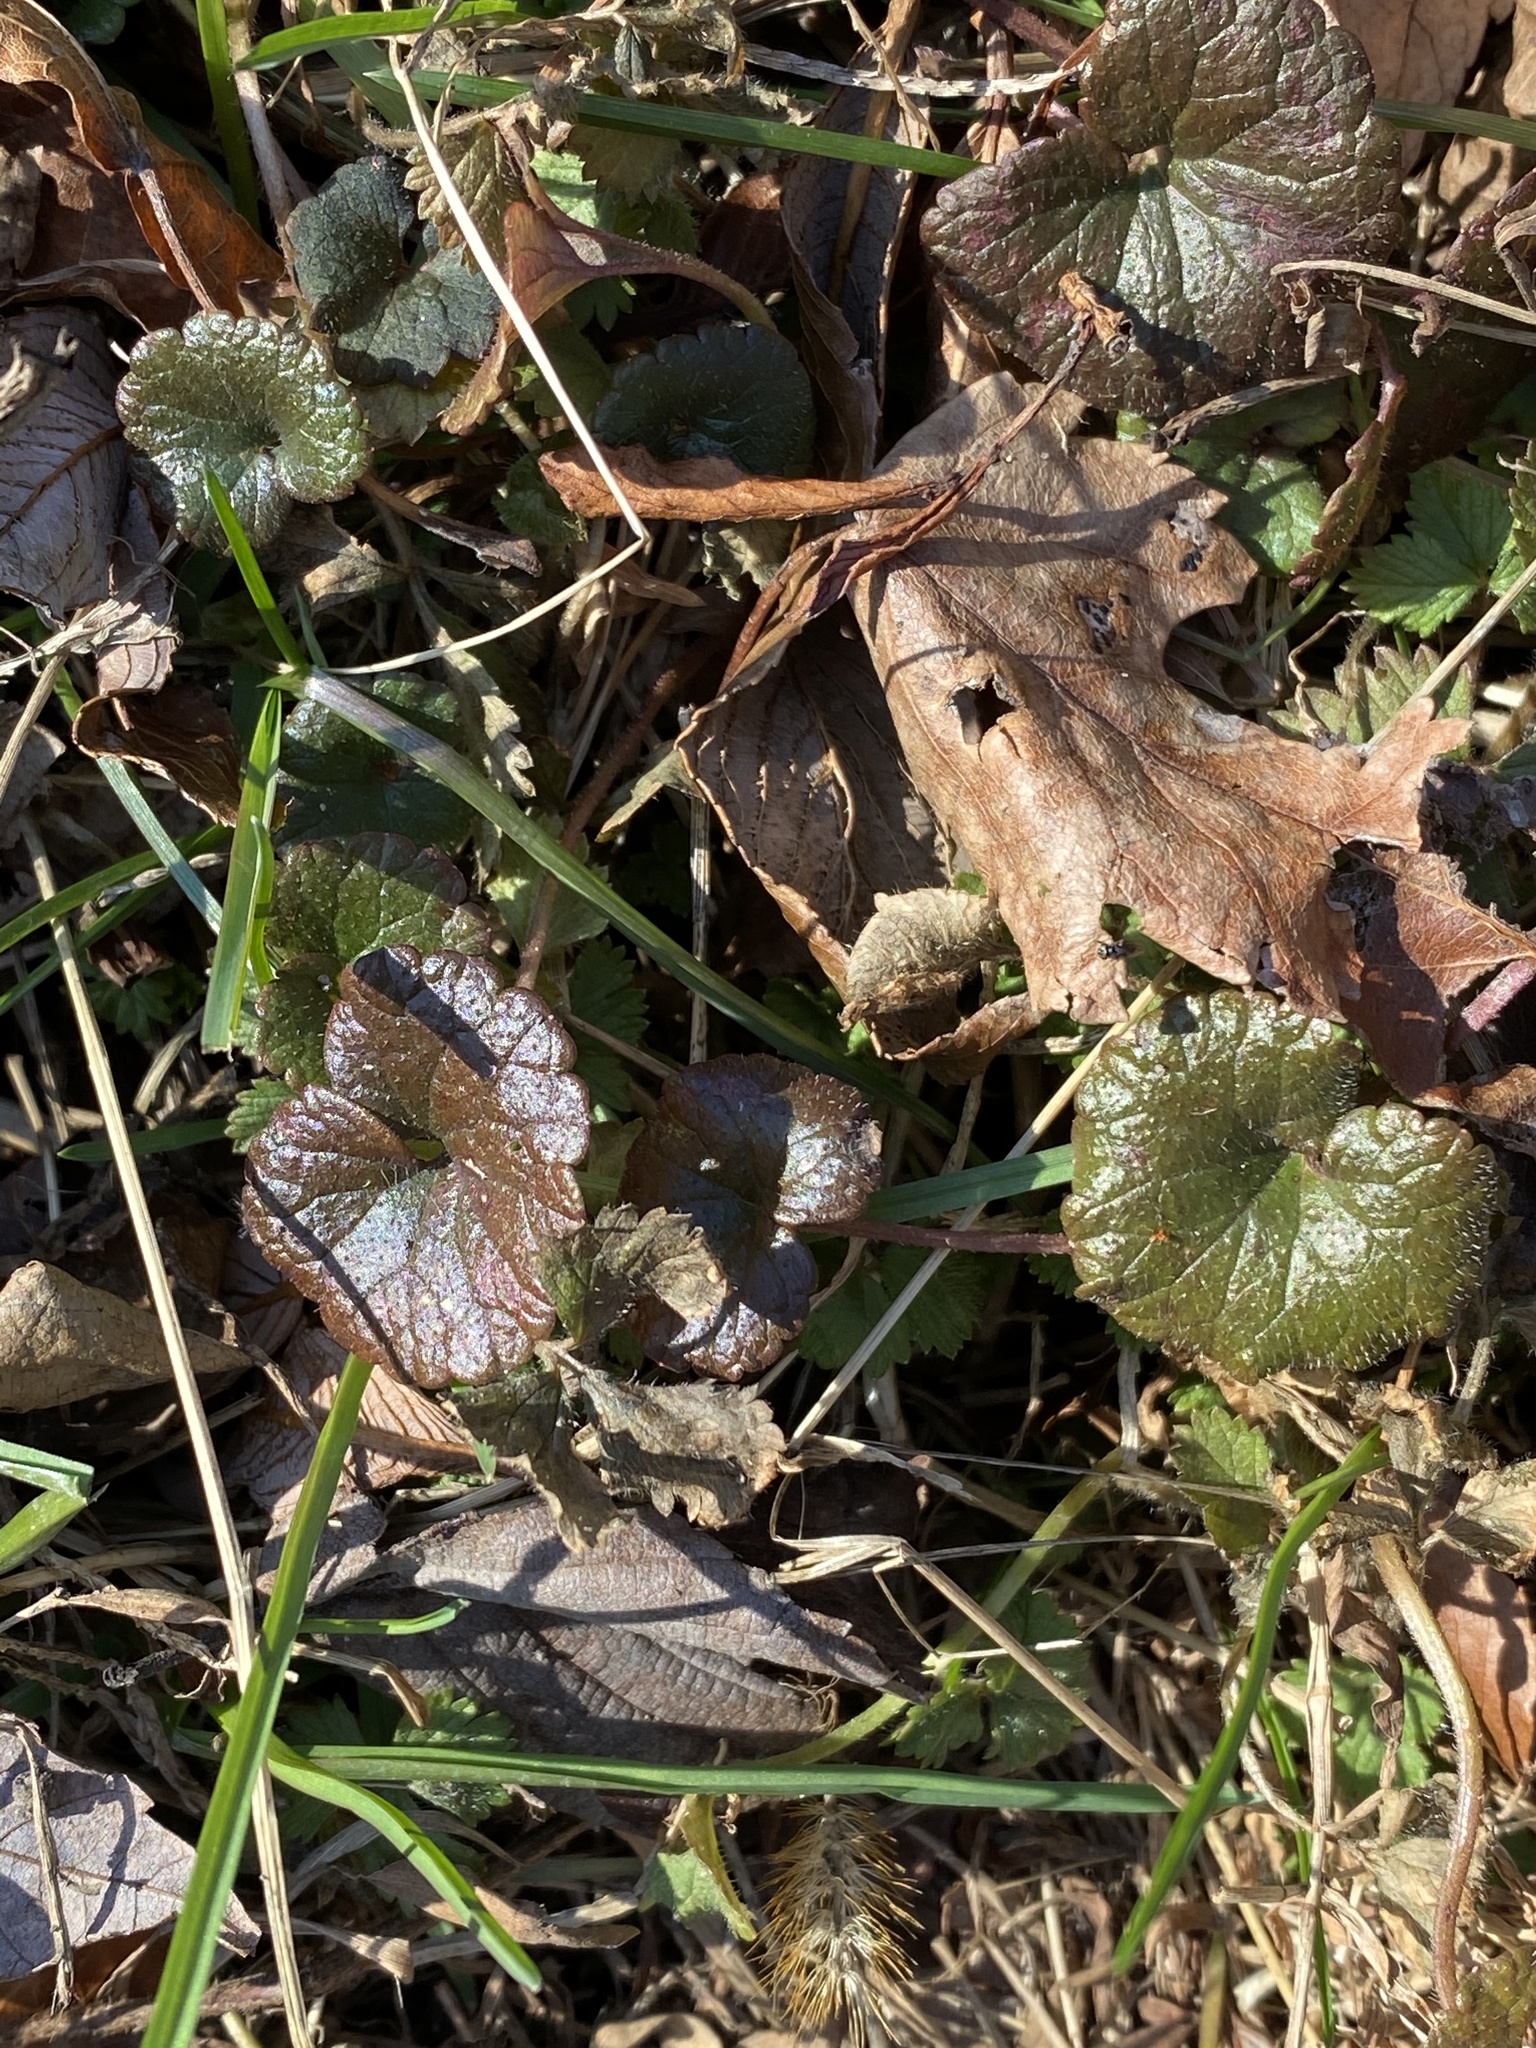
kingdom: Plantae
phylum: Tracheophyta
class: Magnoliopsida
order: Lamiales
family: Lamiaceae
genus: Glechoma
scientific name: Glechoma hederacea
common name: Ground ivy
